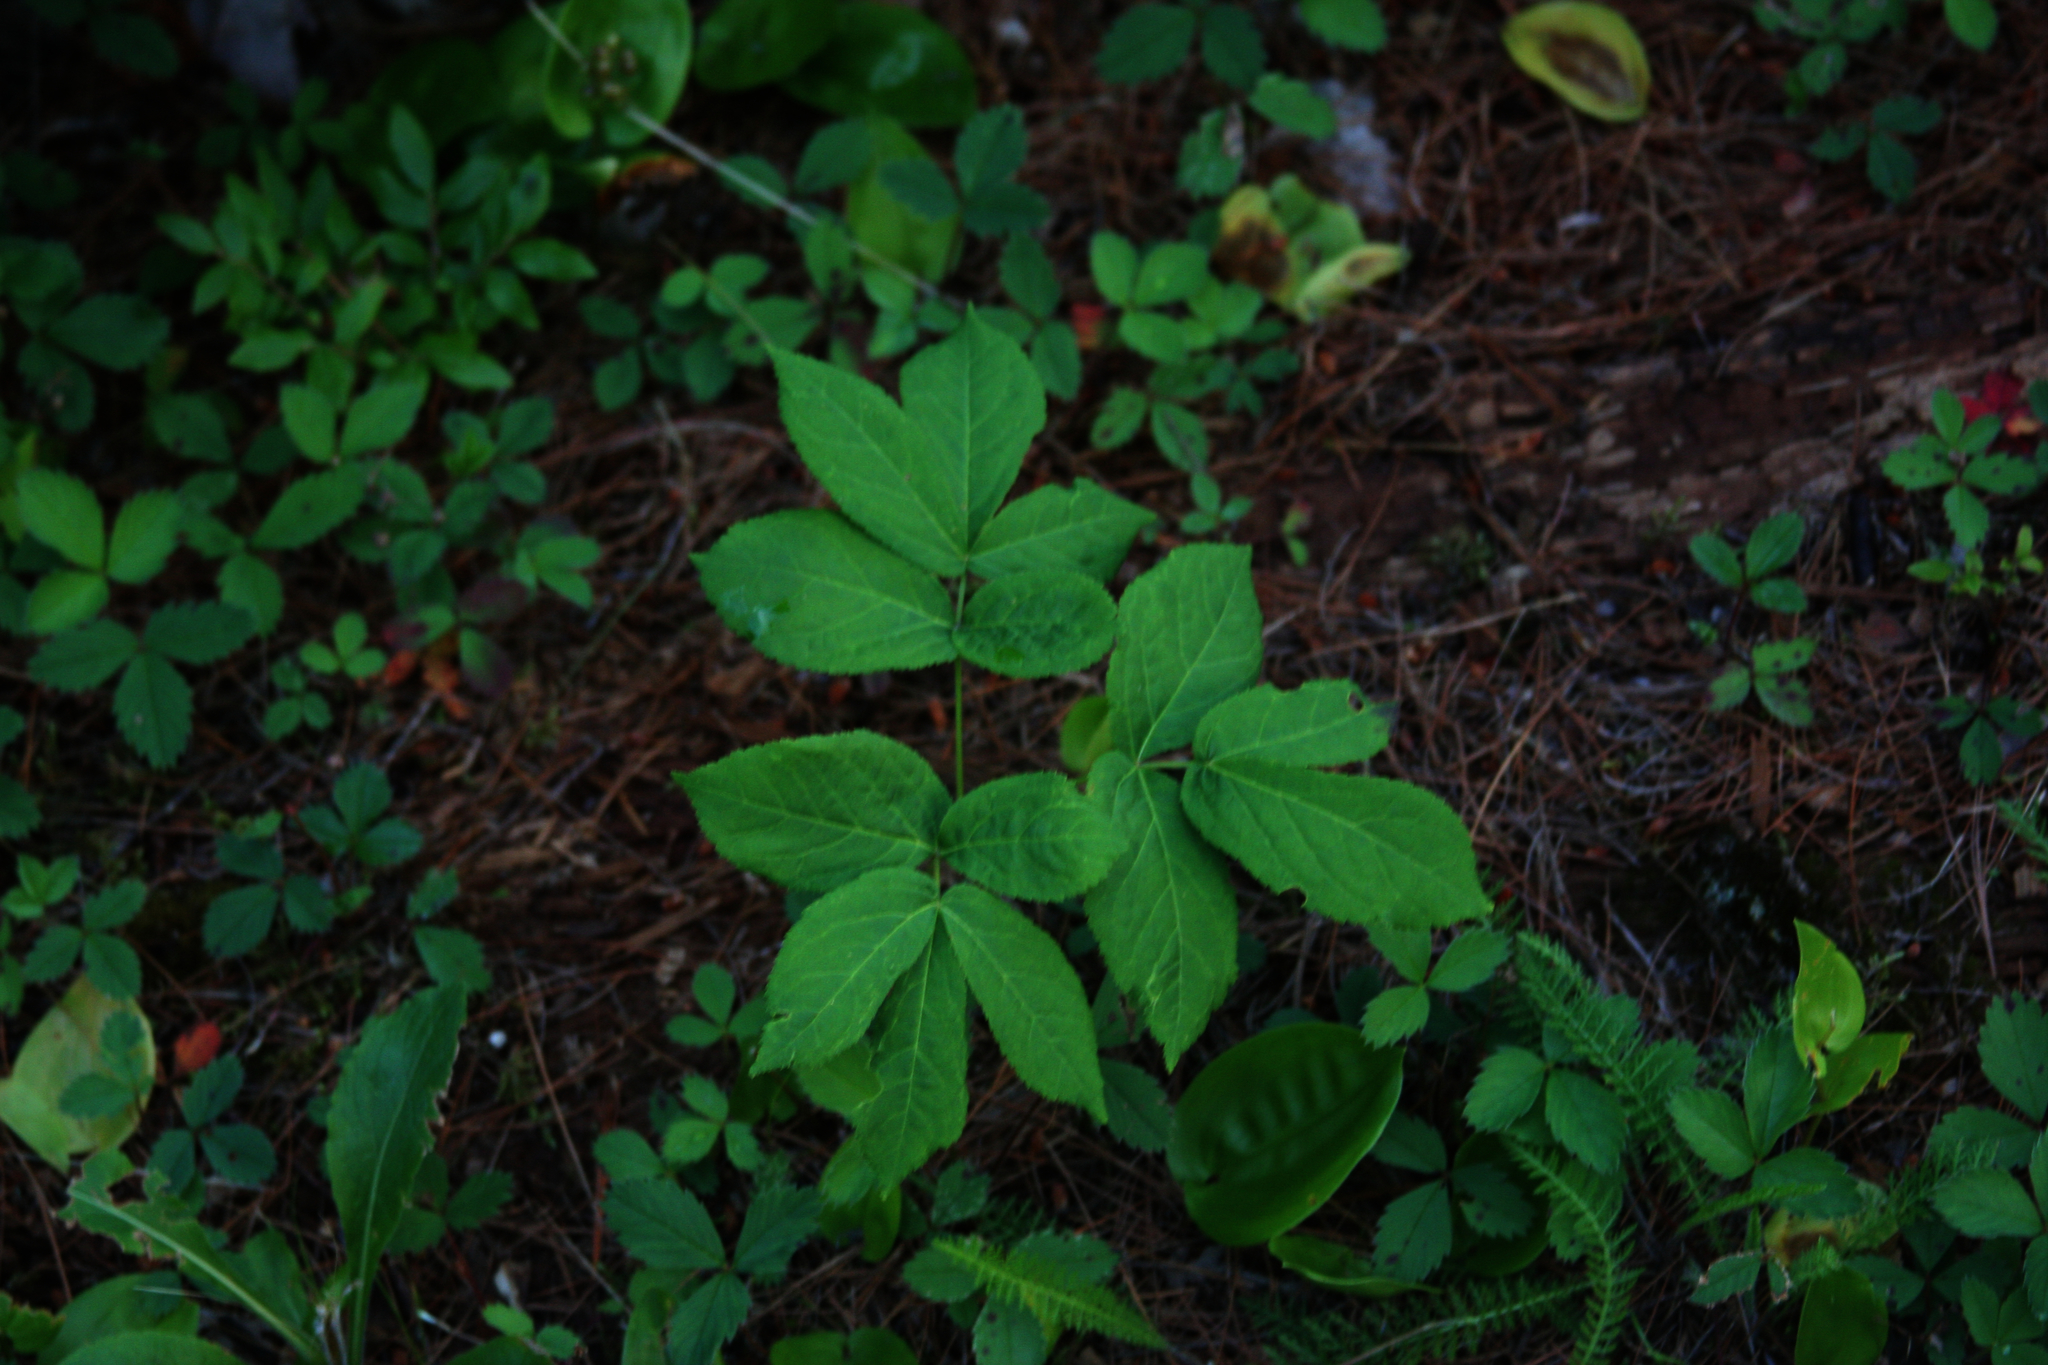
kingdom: Plantae
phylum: Tracheophyta
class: Magnoliopsida
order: Apiales
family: Araliaceae
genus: Aralia
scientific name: Aralia nudicaulis
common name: Wild sarsaparilla
